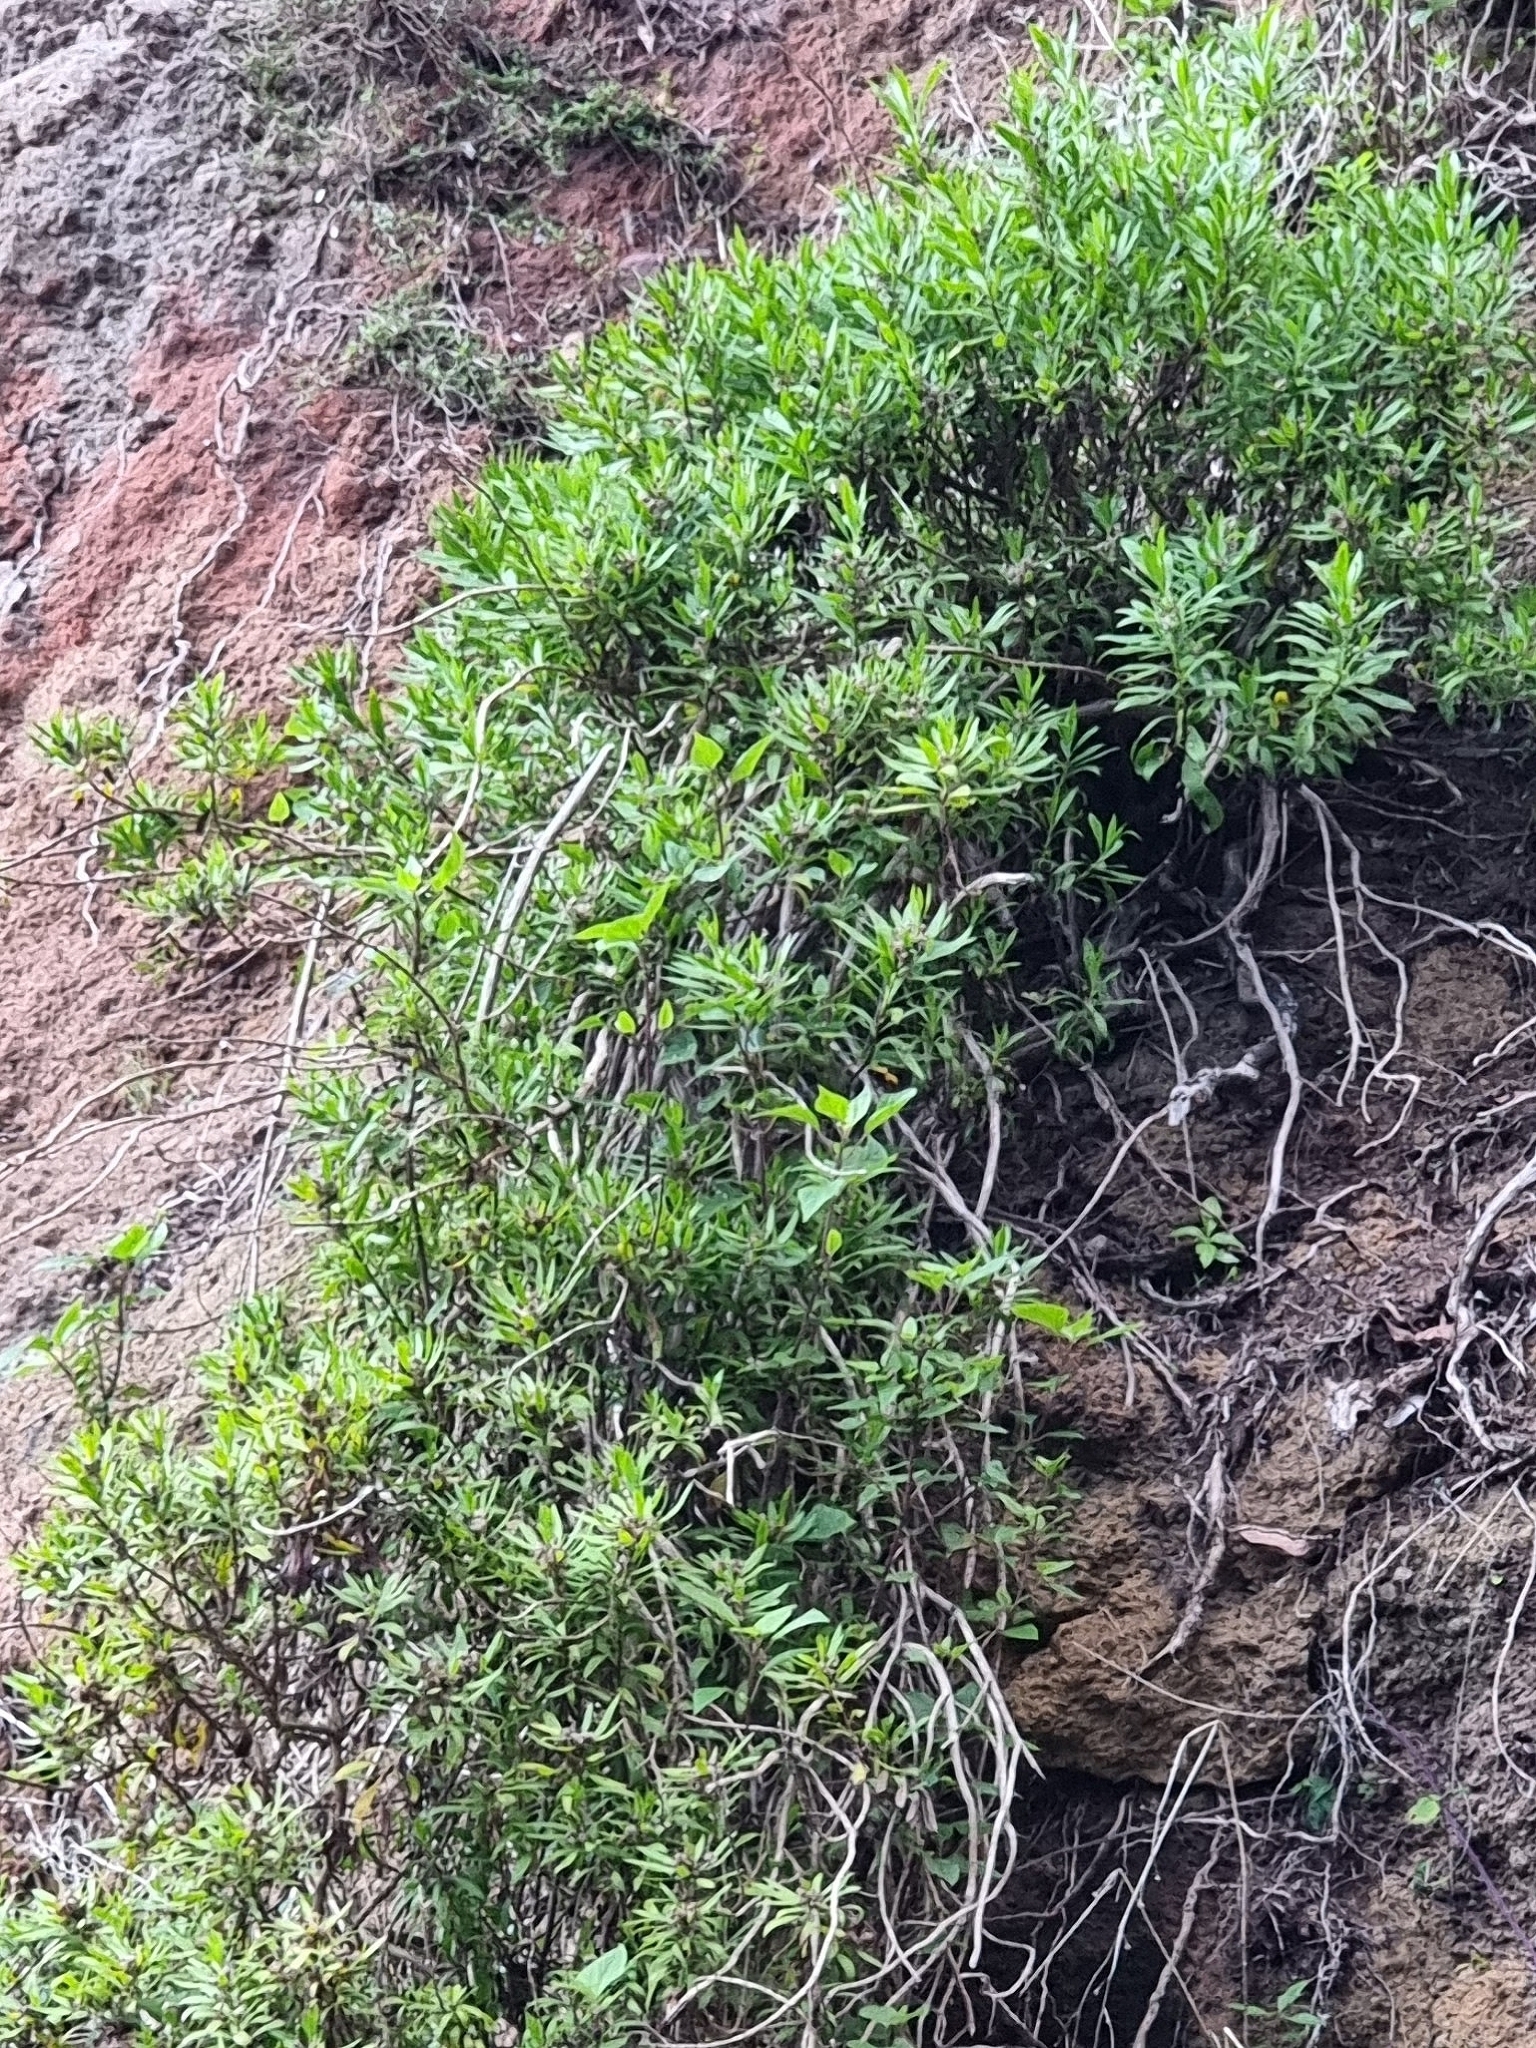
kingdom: Plantae
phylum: Tracheophyta
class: Magnoliopsida
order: Lamiales
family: Plantaginaceae
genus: Globularia
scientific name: Globularia salicina
